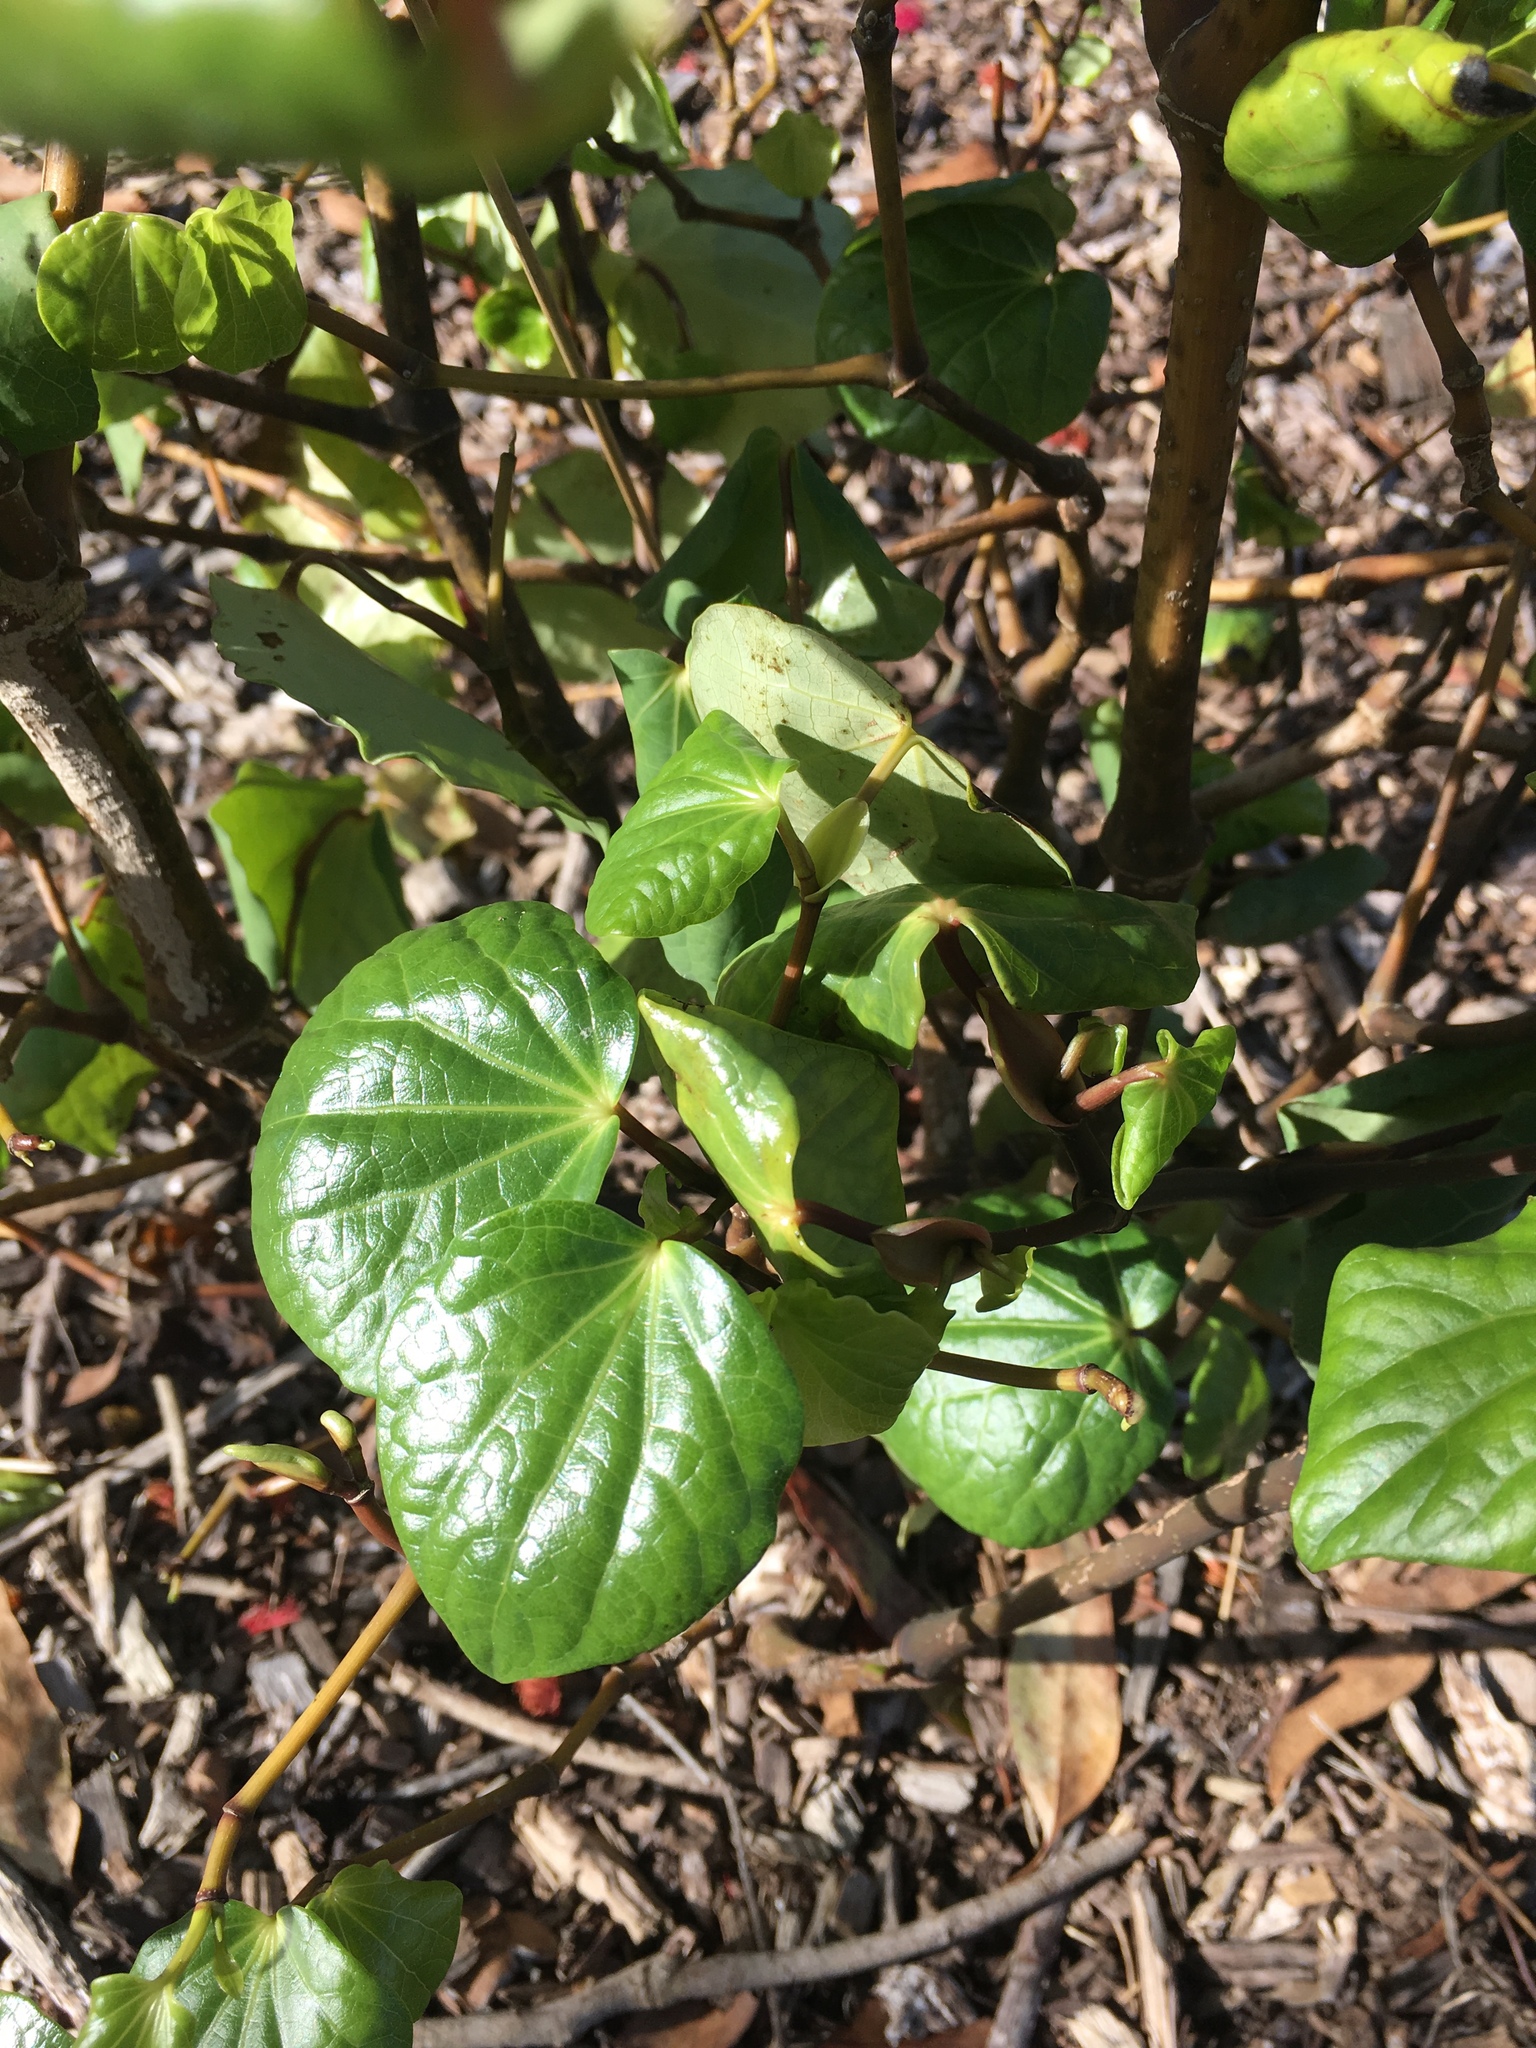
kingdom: Plantae
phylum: Tracheophyta
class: Magnoliopsida
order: Piperales
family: Piperaceae
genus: Macropiper
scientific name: Macropiper excelsum
